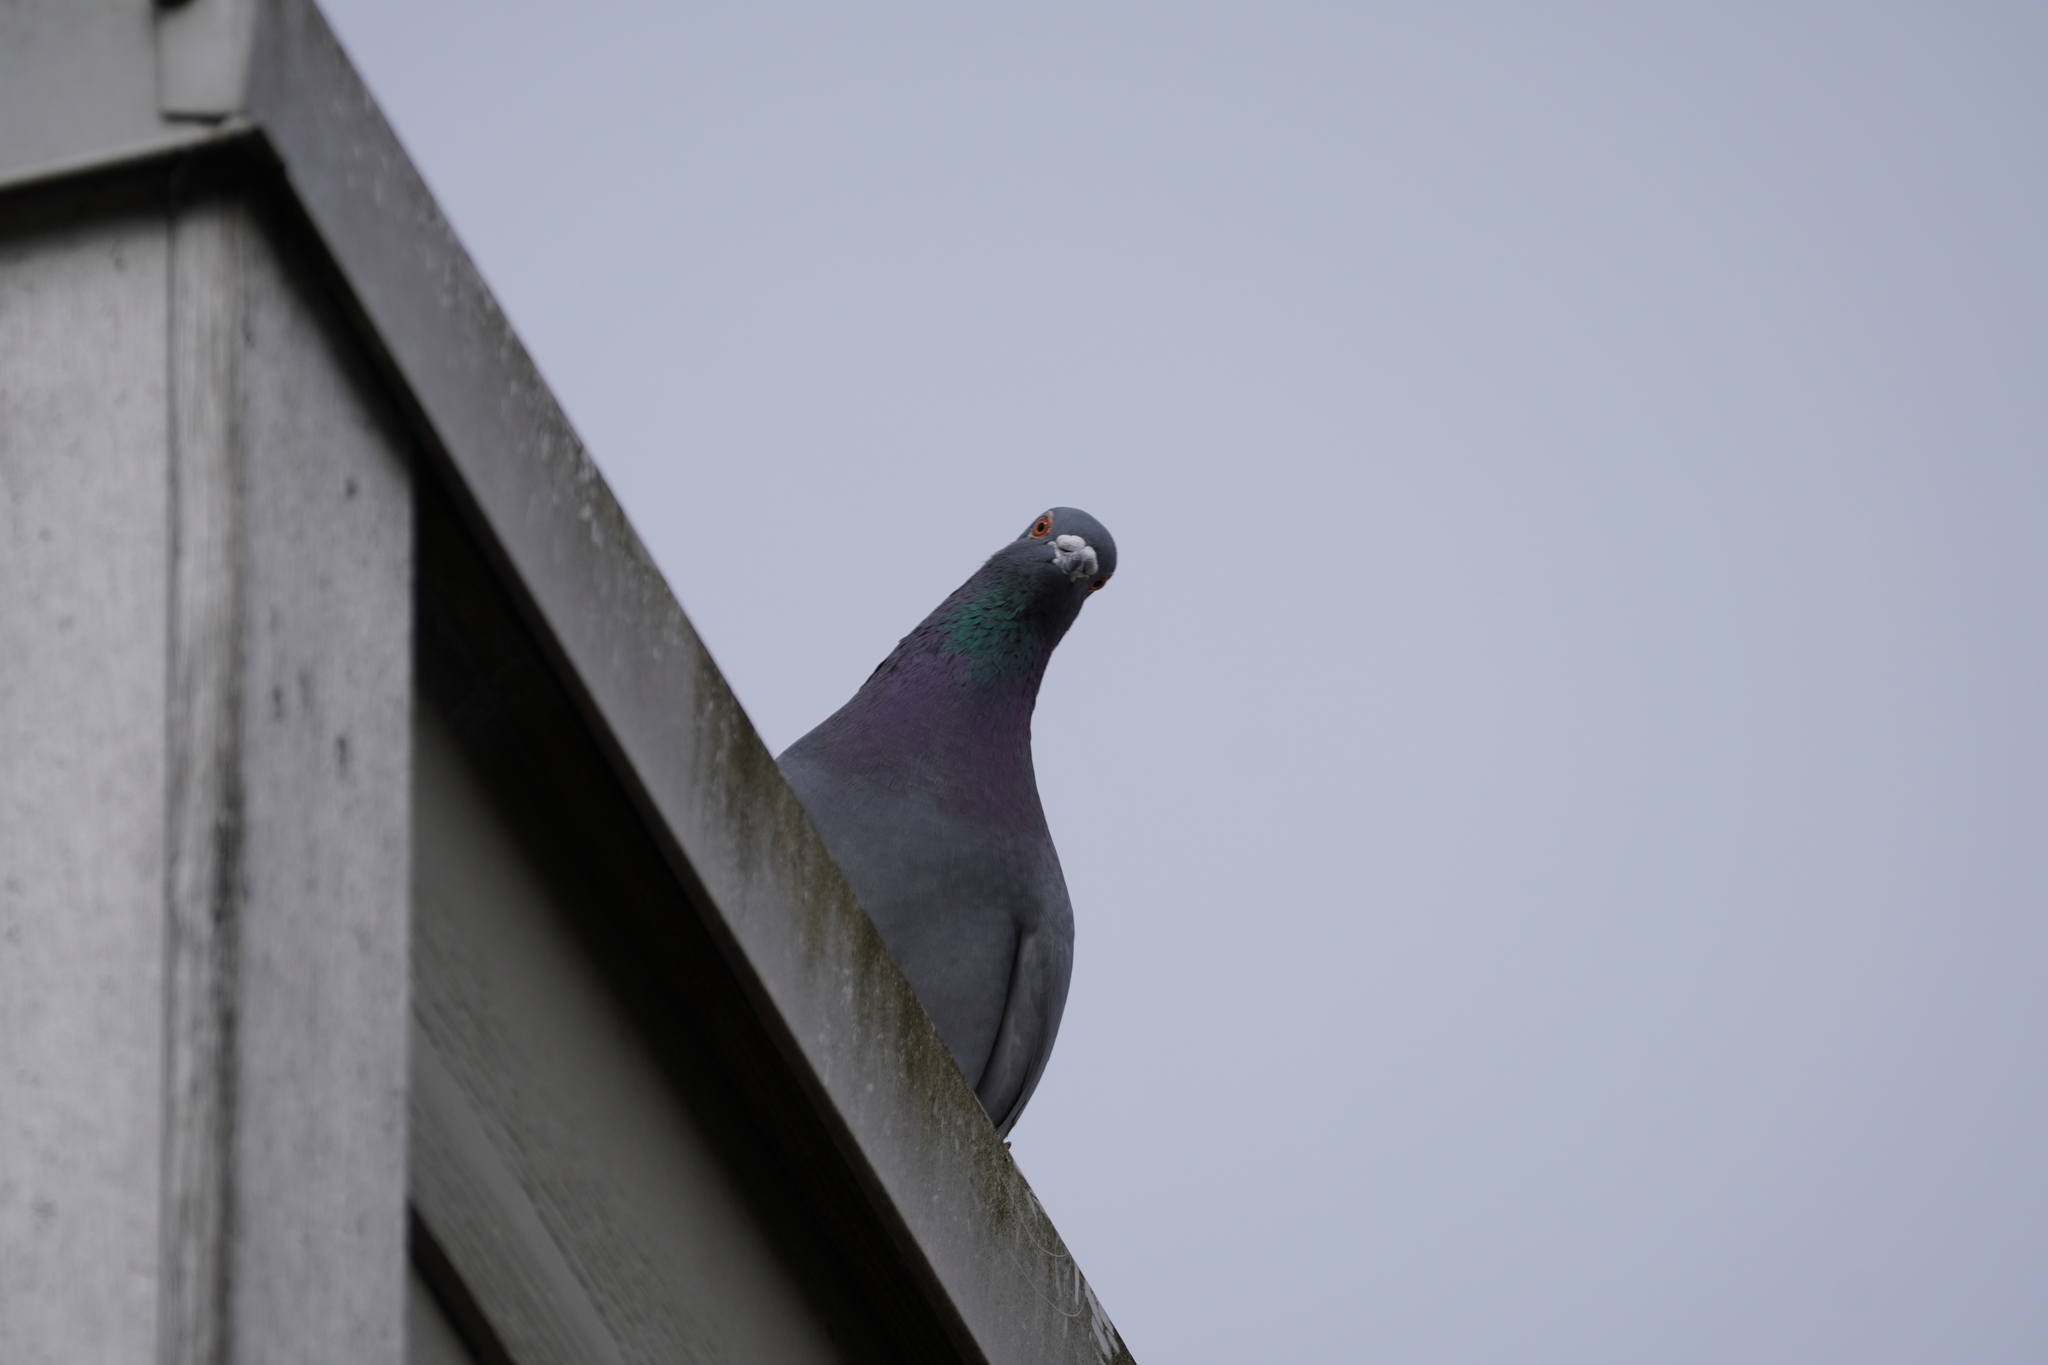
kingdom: Animalia
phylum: Chordata
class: Aves
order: Columbiformes
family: Columbidae
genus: Columba
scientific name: Columba livia
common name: Rock pigeon
